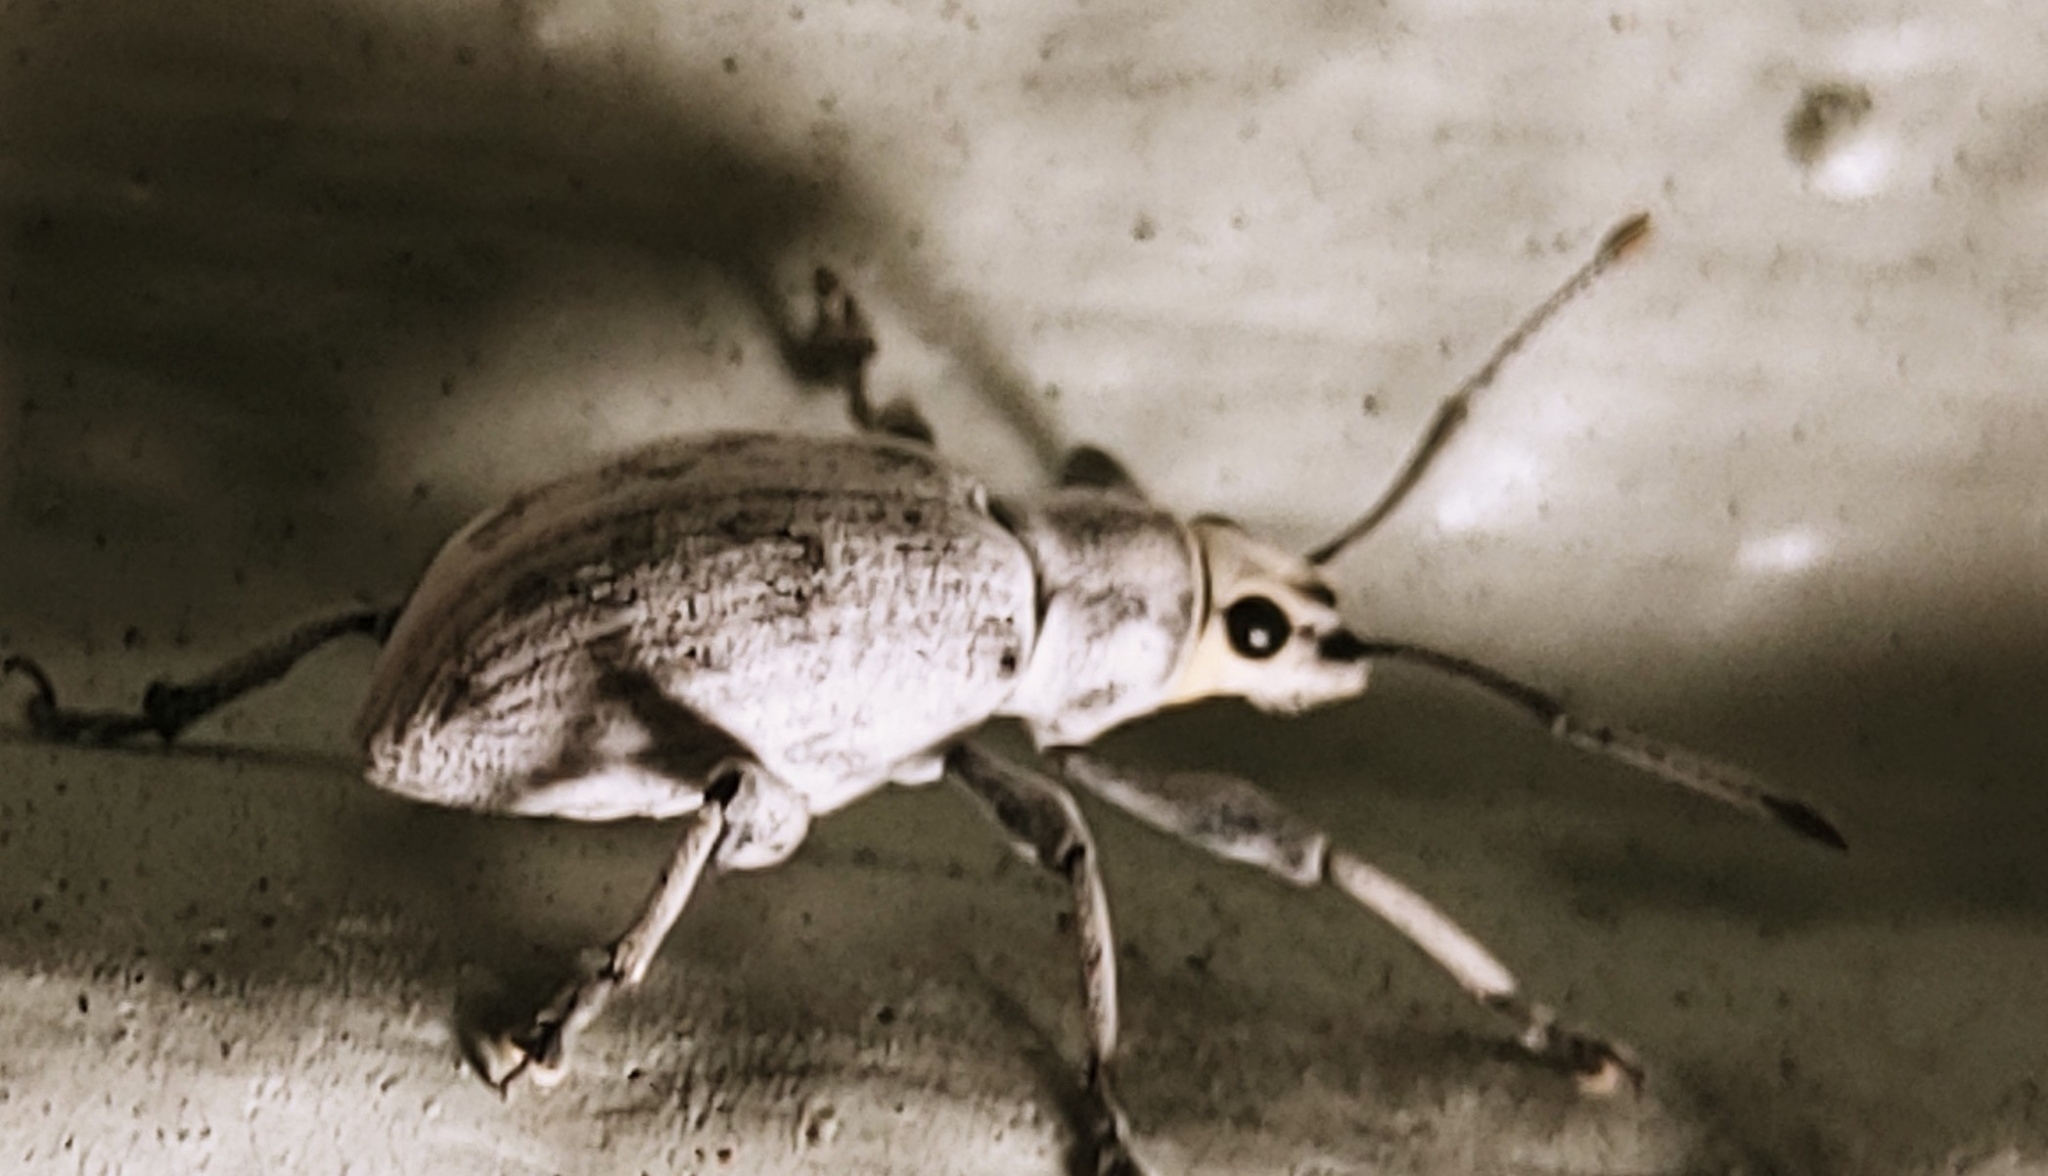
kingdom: Animalia
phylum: Arthropoda
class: Insecta
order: Coleoptera
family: Curculionidae
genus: Myllocerus
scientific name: Myllocerus undecimpustulatus
